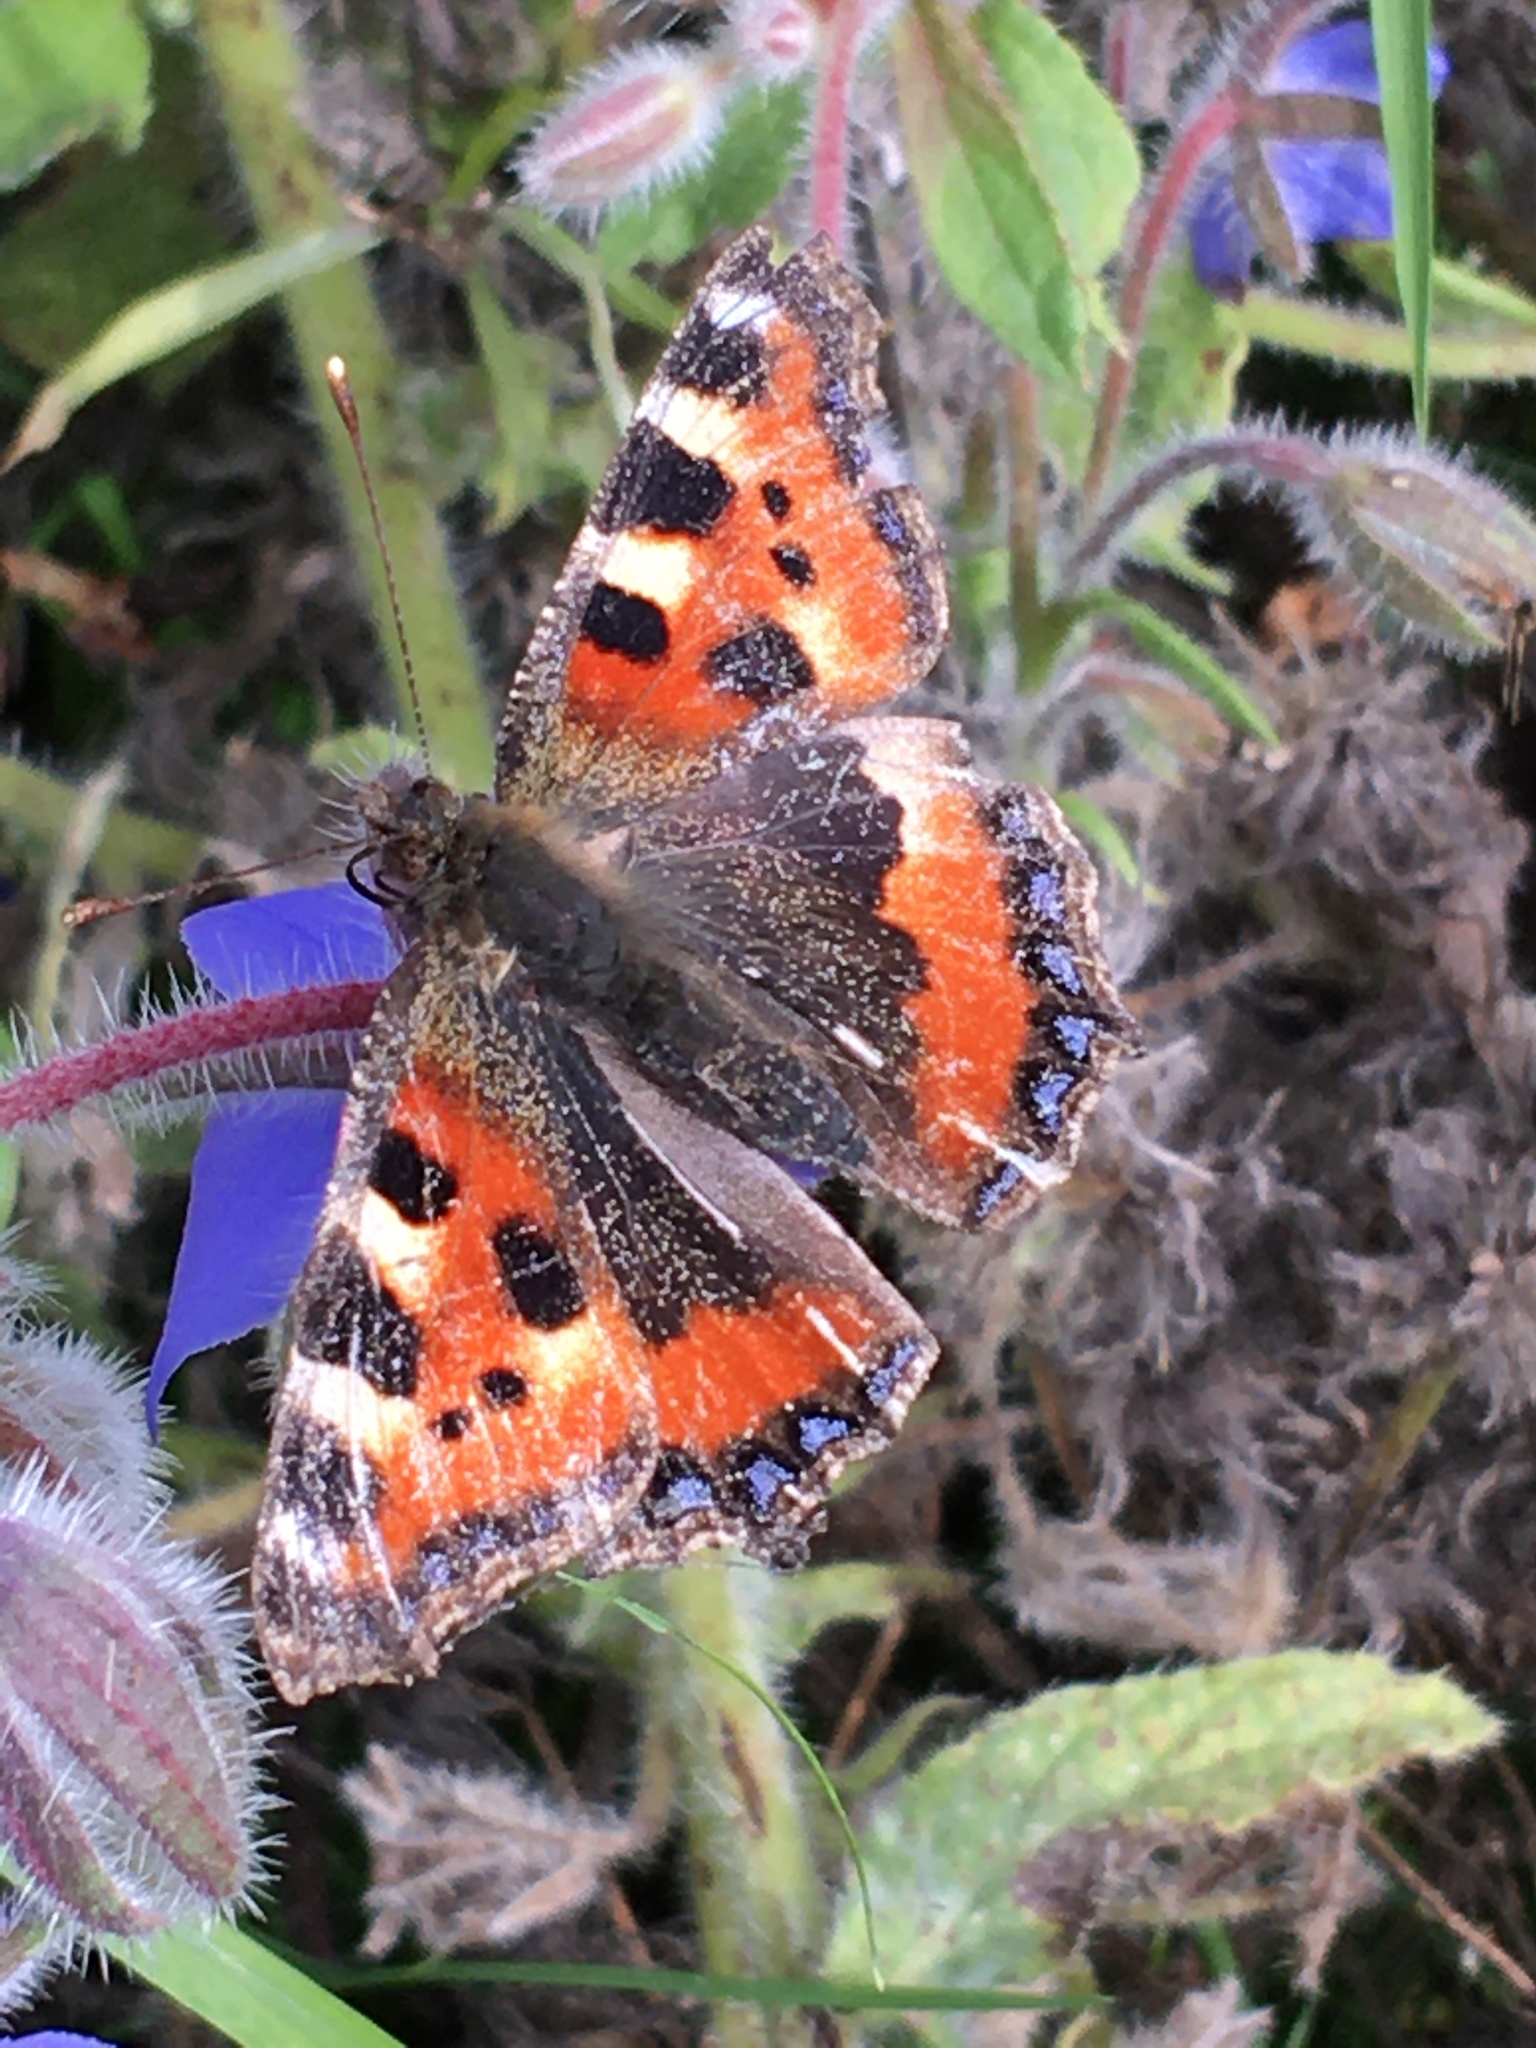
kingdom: Animalia
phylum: Arthropoda
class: Insecta
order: Lepidoptera
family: Nymphalidae
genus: Aglais
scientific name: Aglais urticae
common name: Small tortoiseshell
